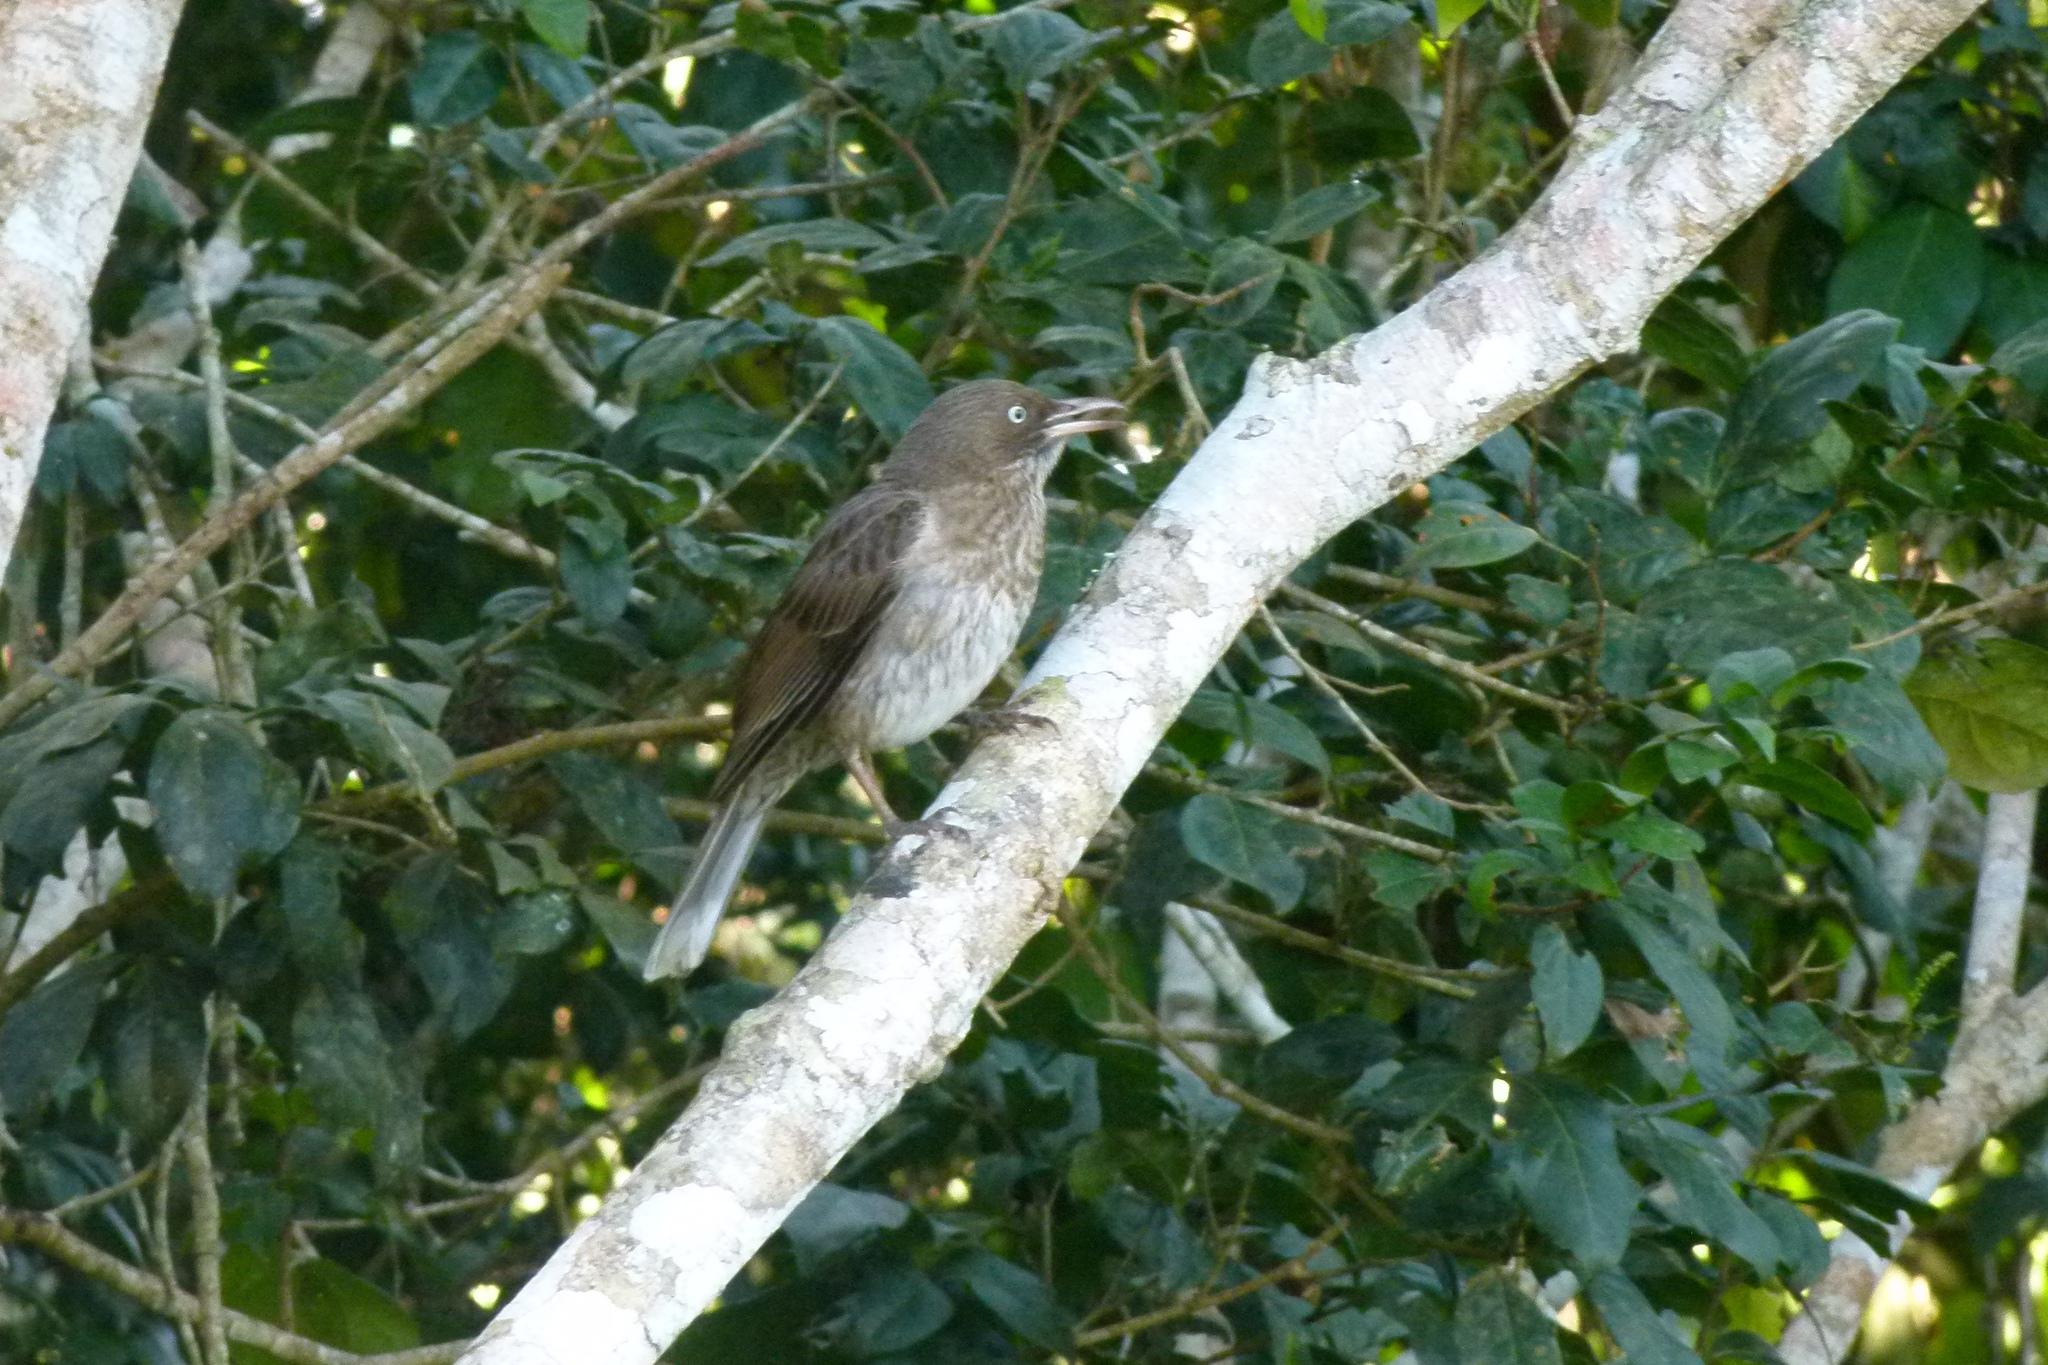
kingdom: Animalia
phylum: Chordata
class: Aves
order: Passeriformes
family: Mimidae
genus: Margarops
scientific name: Margarops fuscatus
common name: Pearly-eyed thrasher
